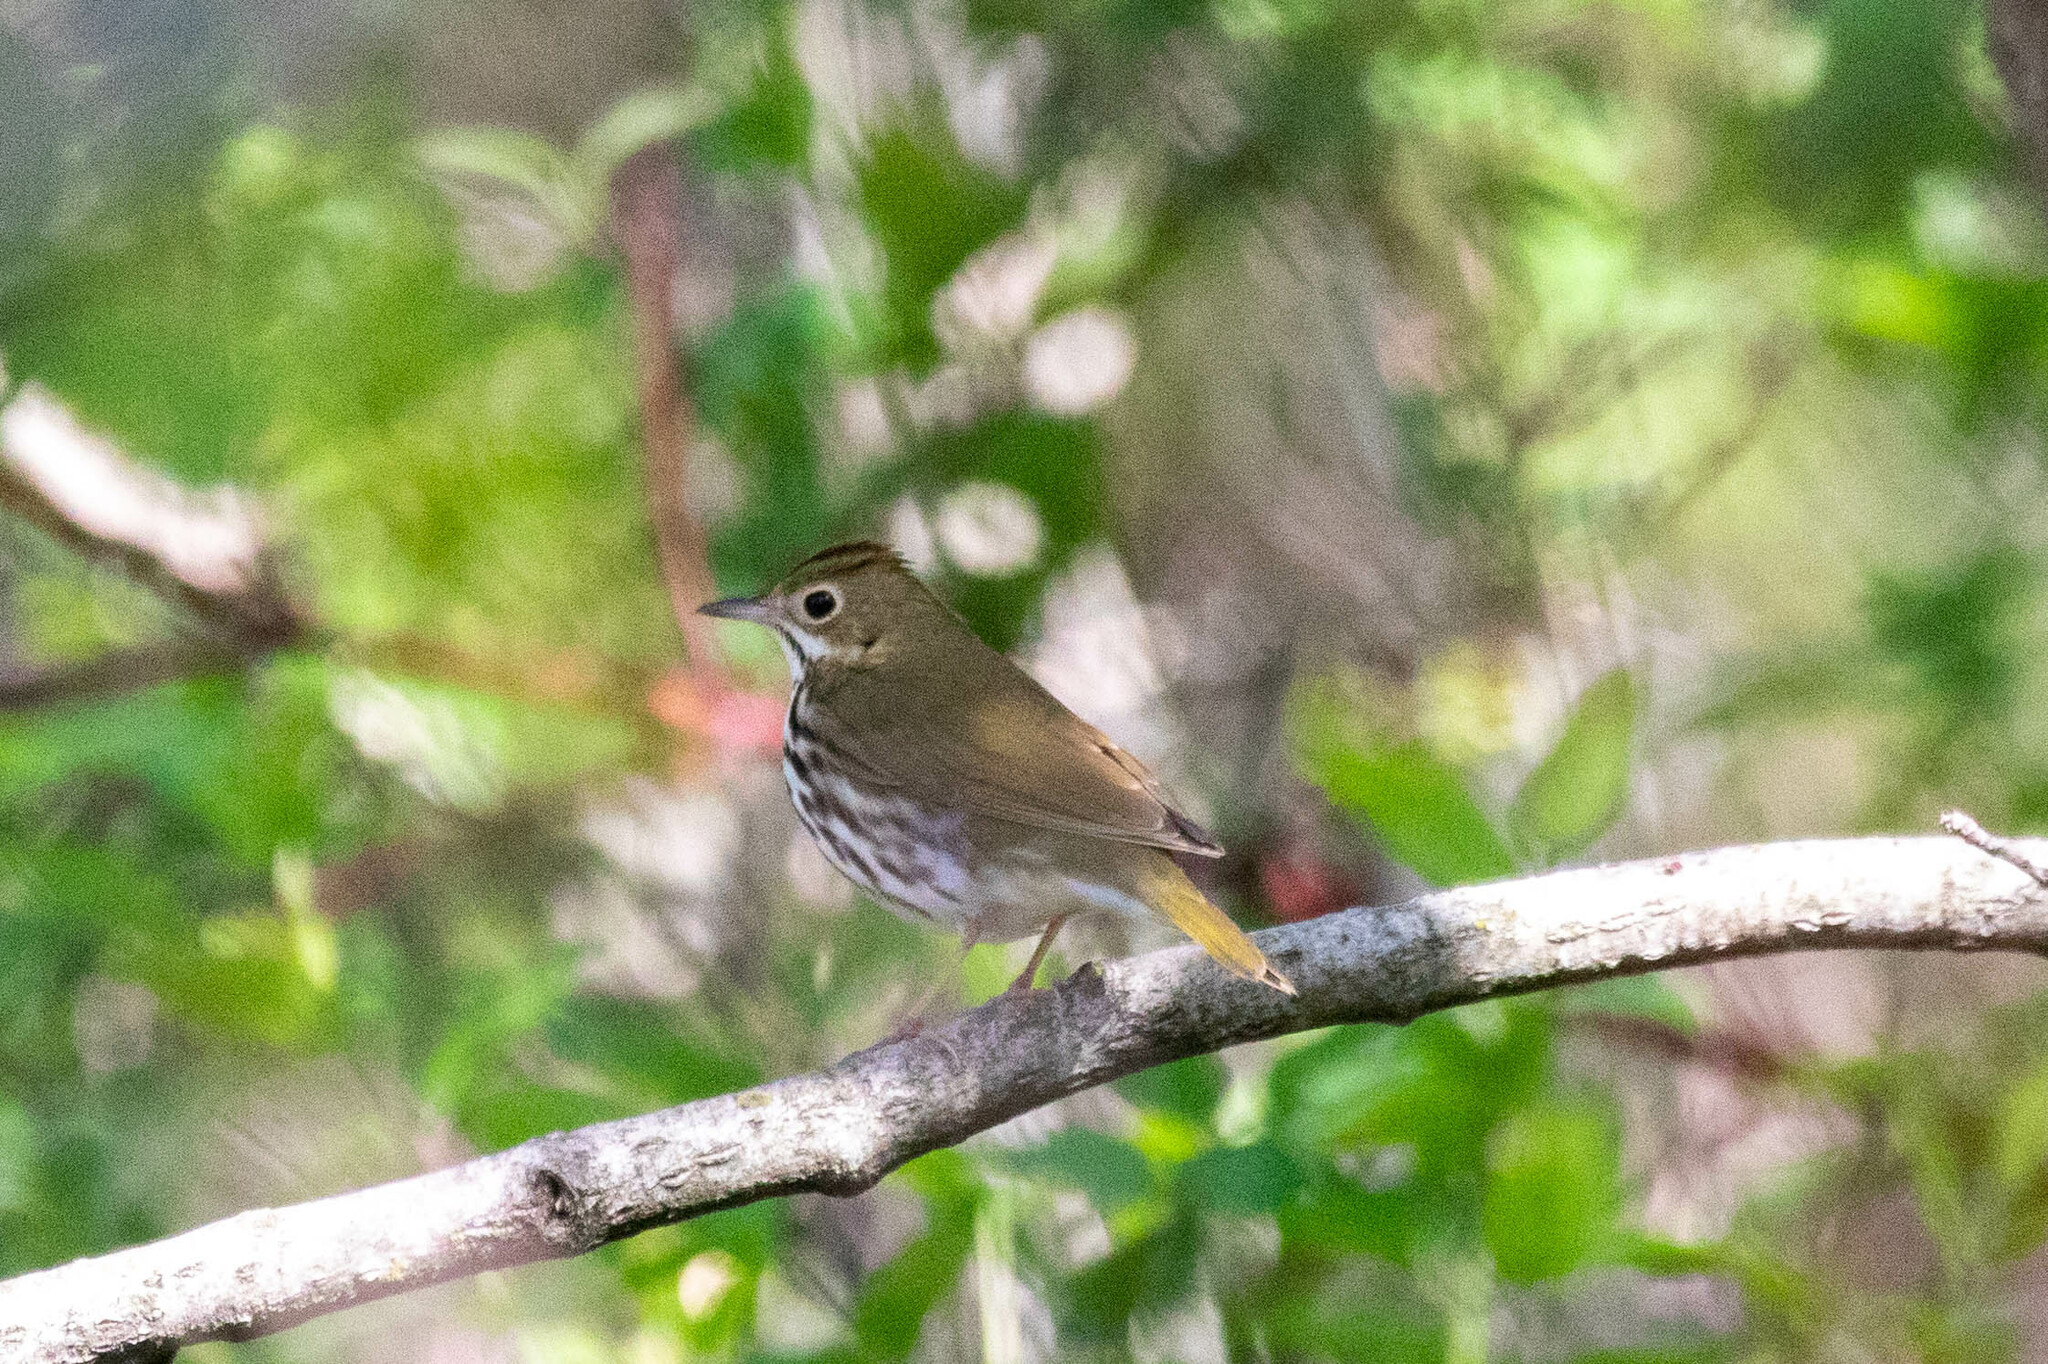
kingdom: Animalia
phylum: Chordata
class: Aves
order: Passeriformes
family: Parulidae
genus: Seiurus
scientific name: Seiurus aurocapilla
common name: Ovenbird
